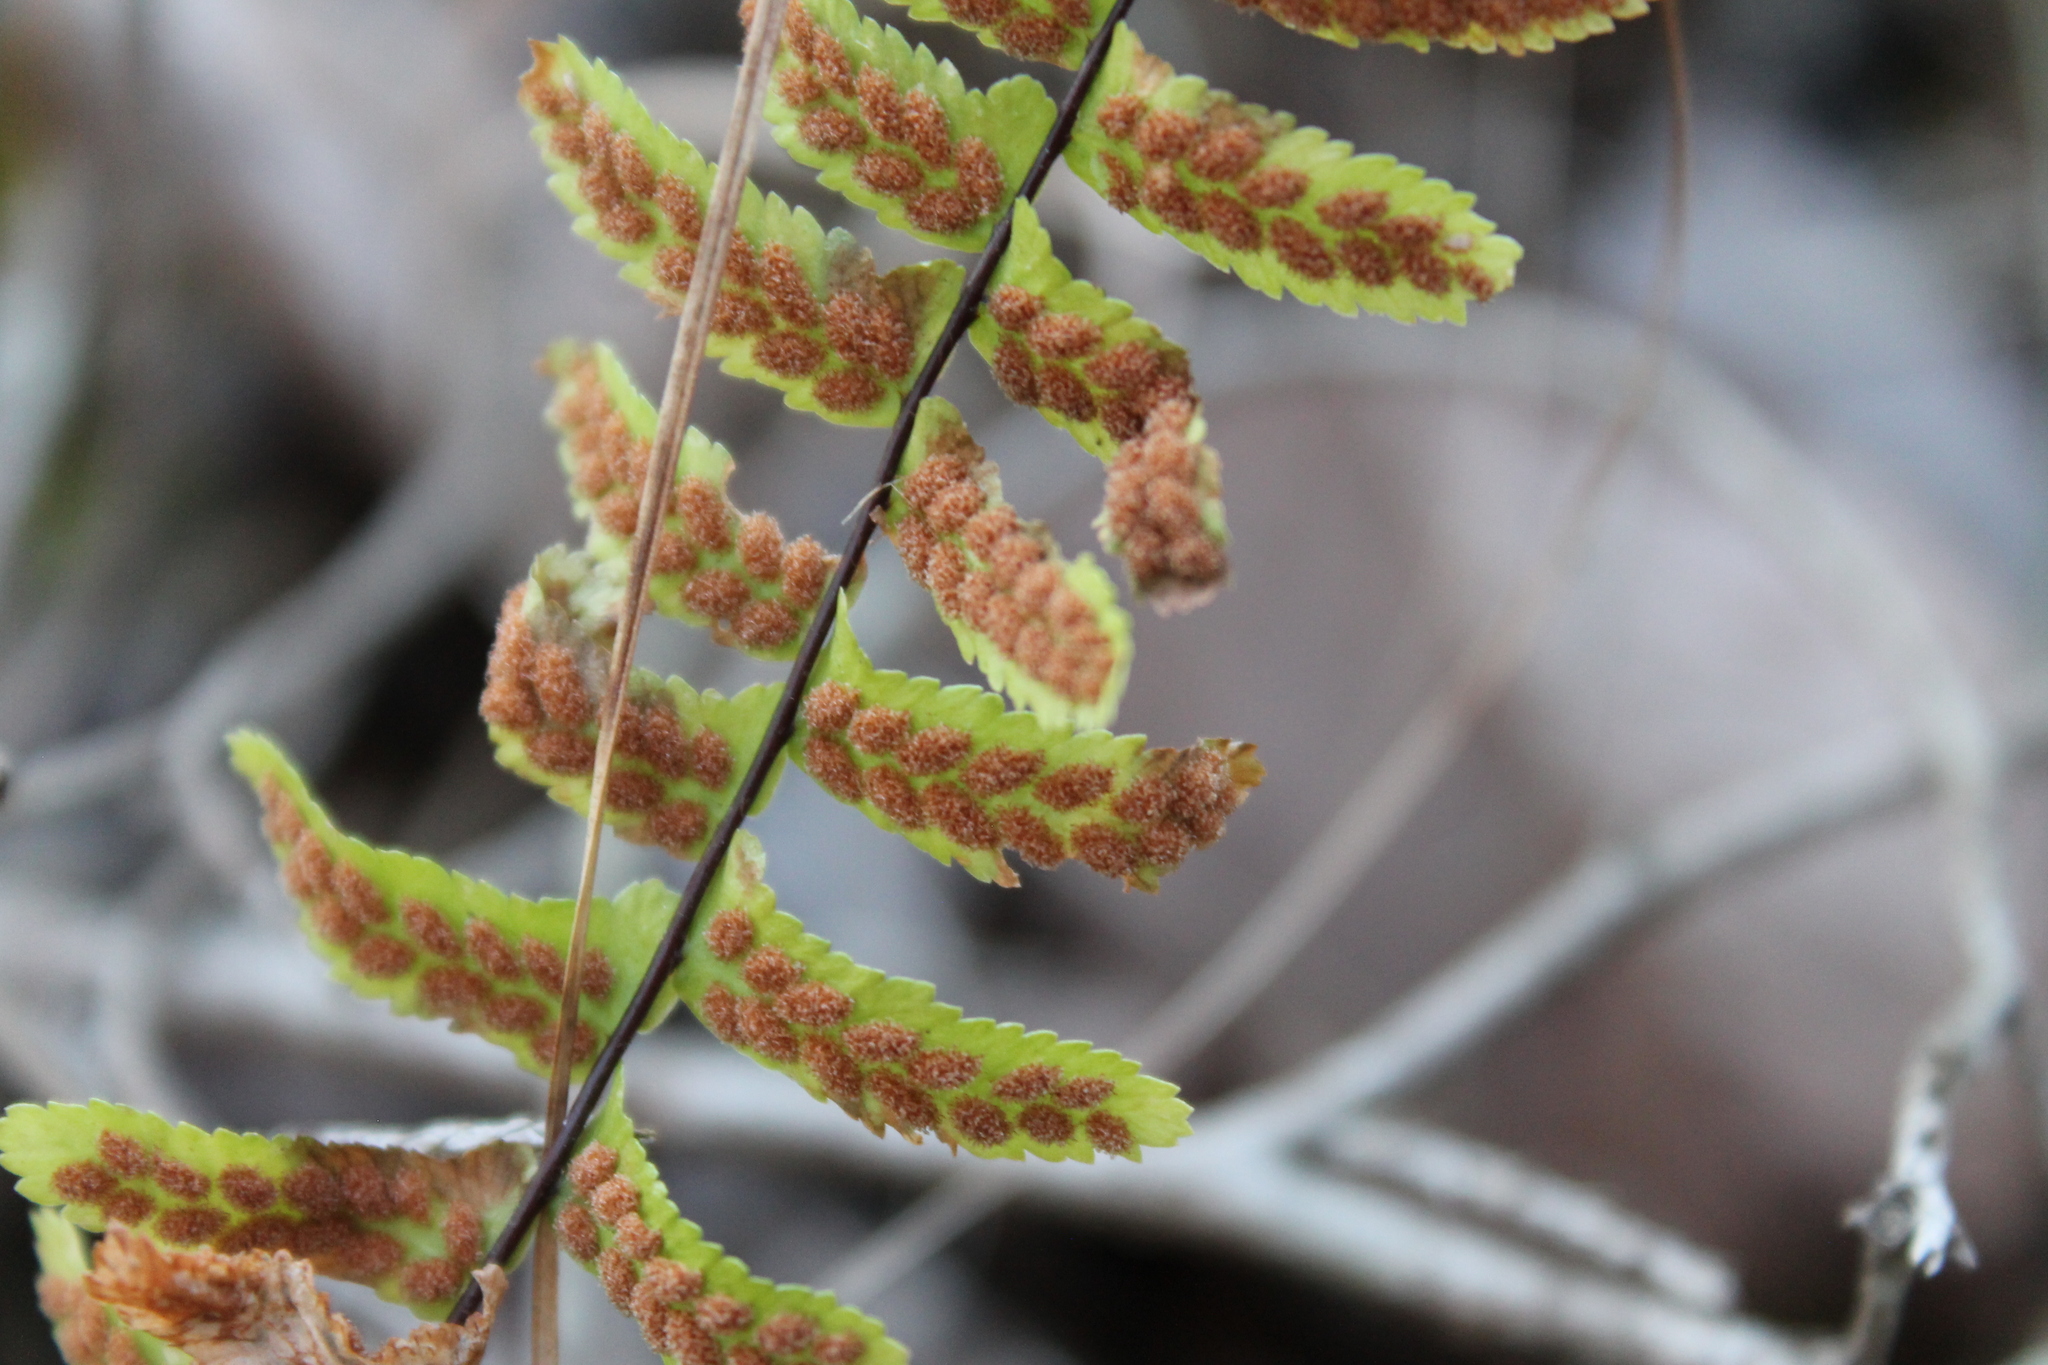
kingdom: Plantae
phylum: Tracheophyta
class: Polypodiopsida
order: Polypodiales
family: Aspleniaceae
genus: Asplenium
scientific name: Asplenium platyneuron
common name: Ebony spleenwort
